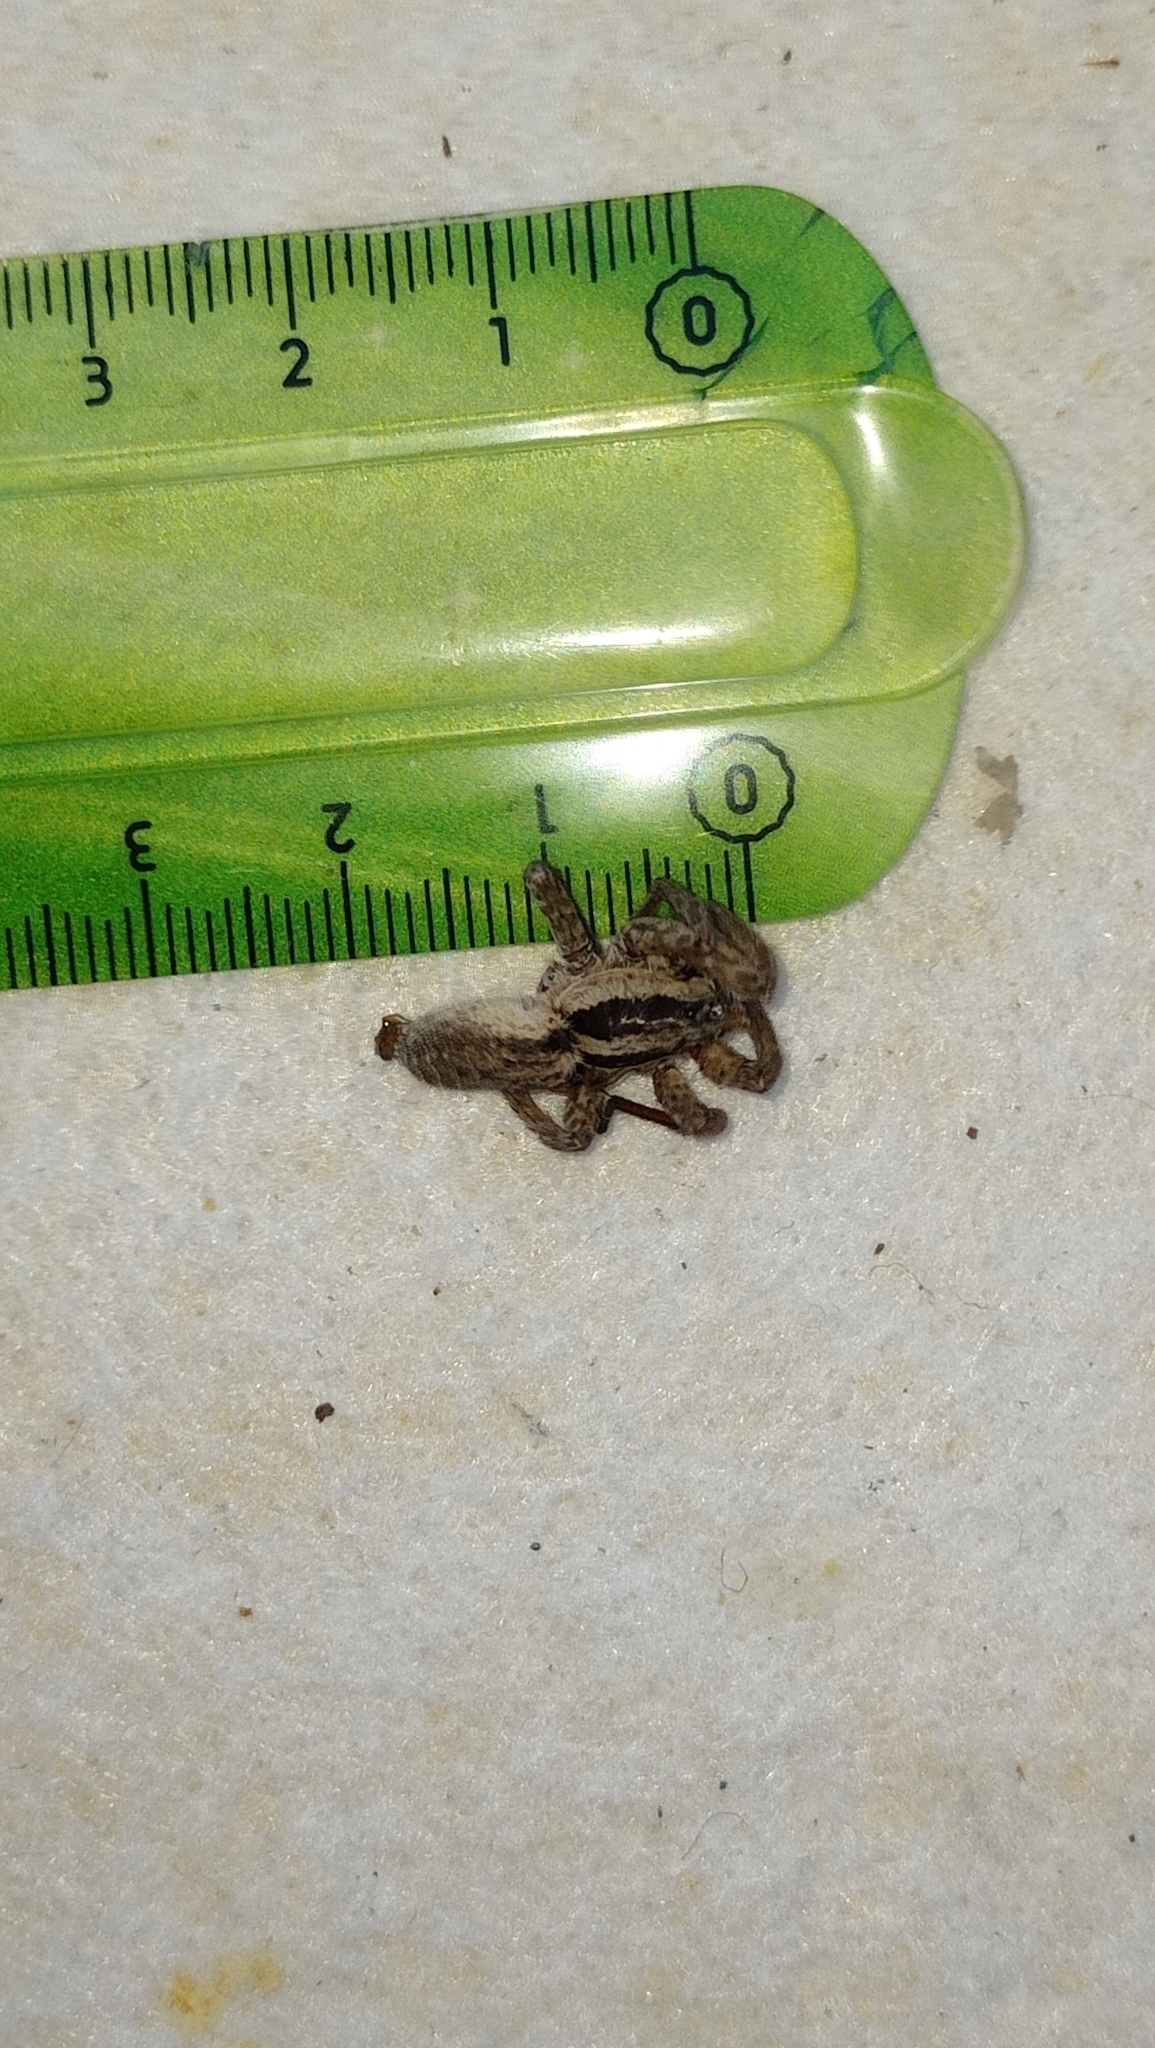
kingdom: Animalia
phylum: Arthropoda
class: Arachnida
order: Araneae
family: Lycosidae
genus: Hogna
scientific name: Hogna radiata
